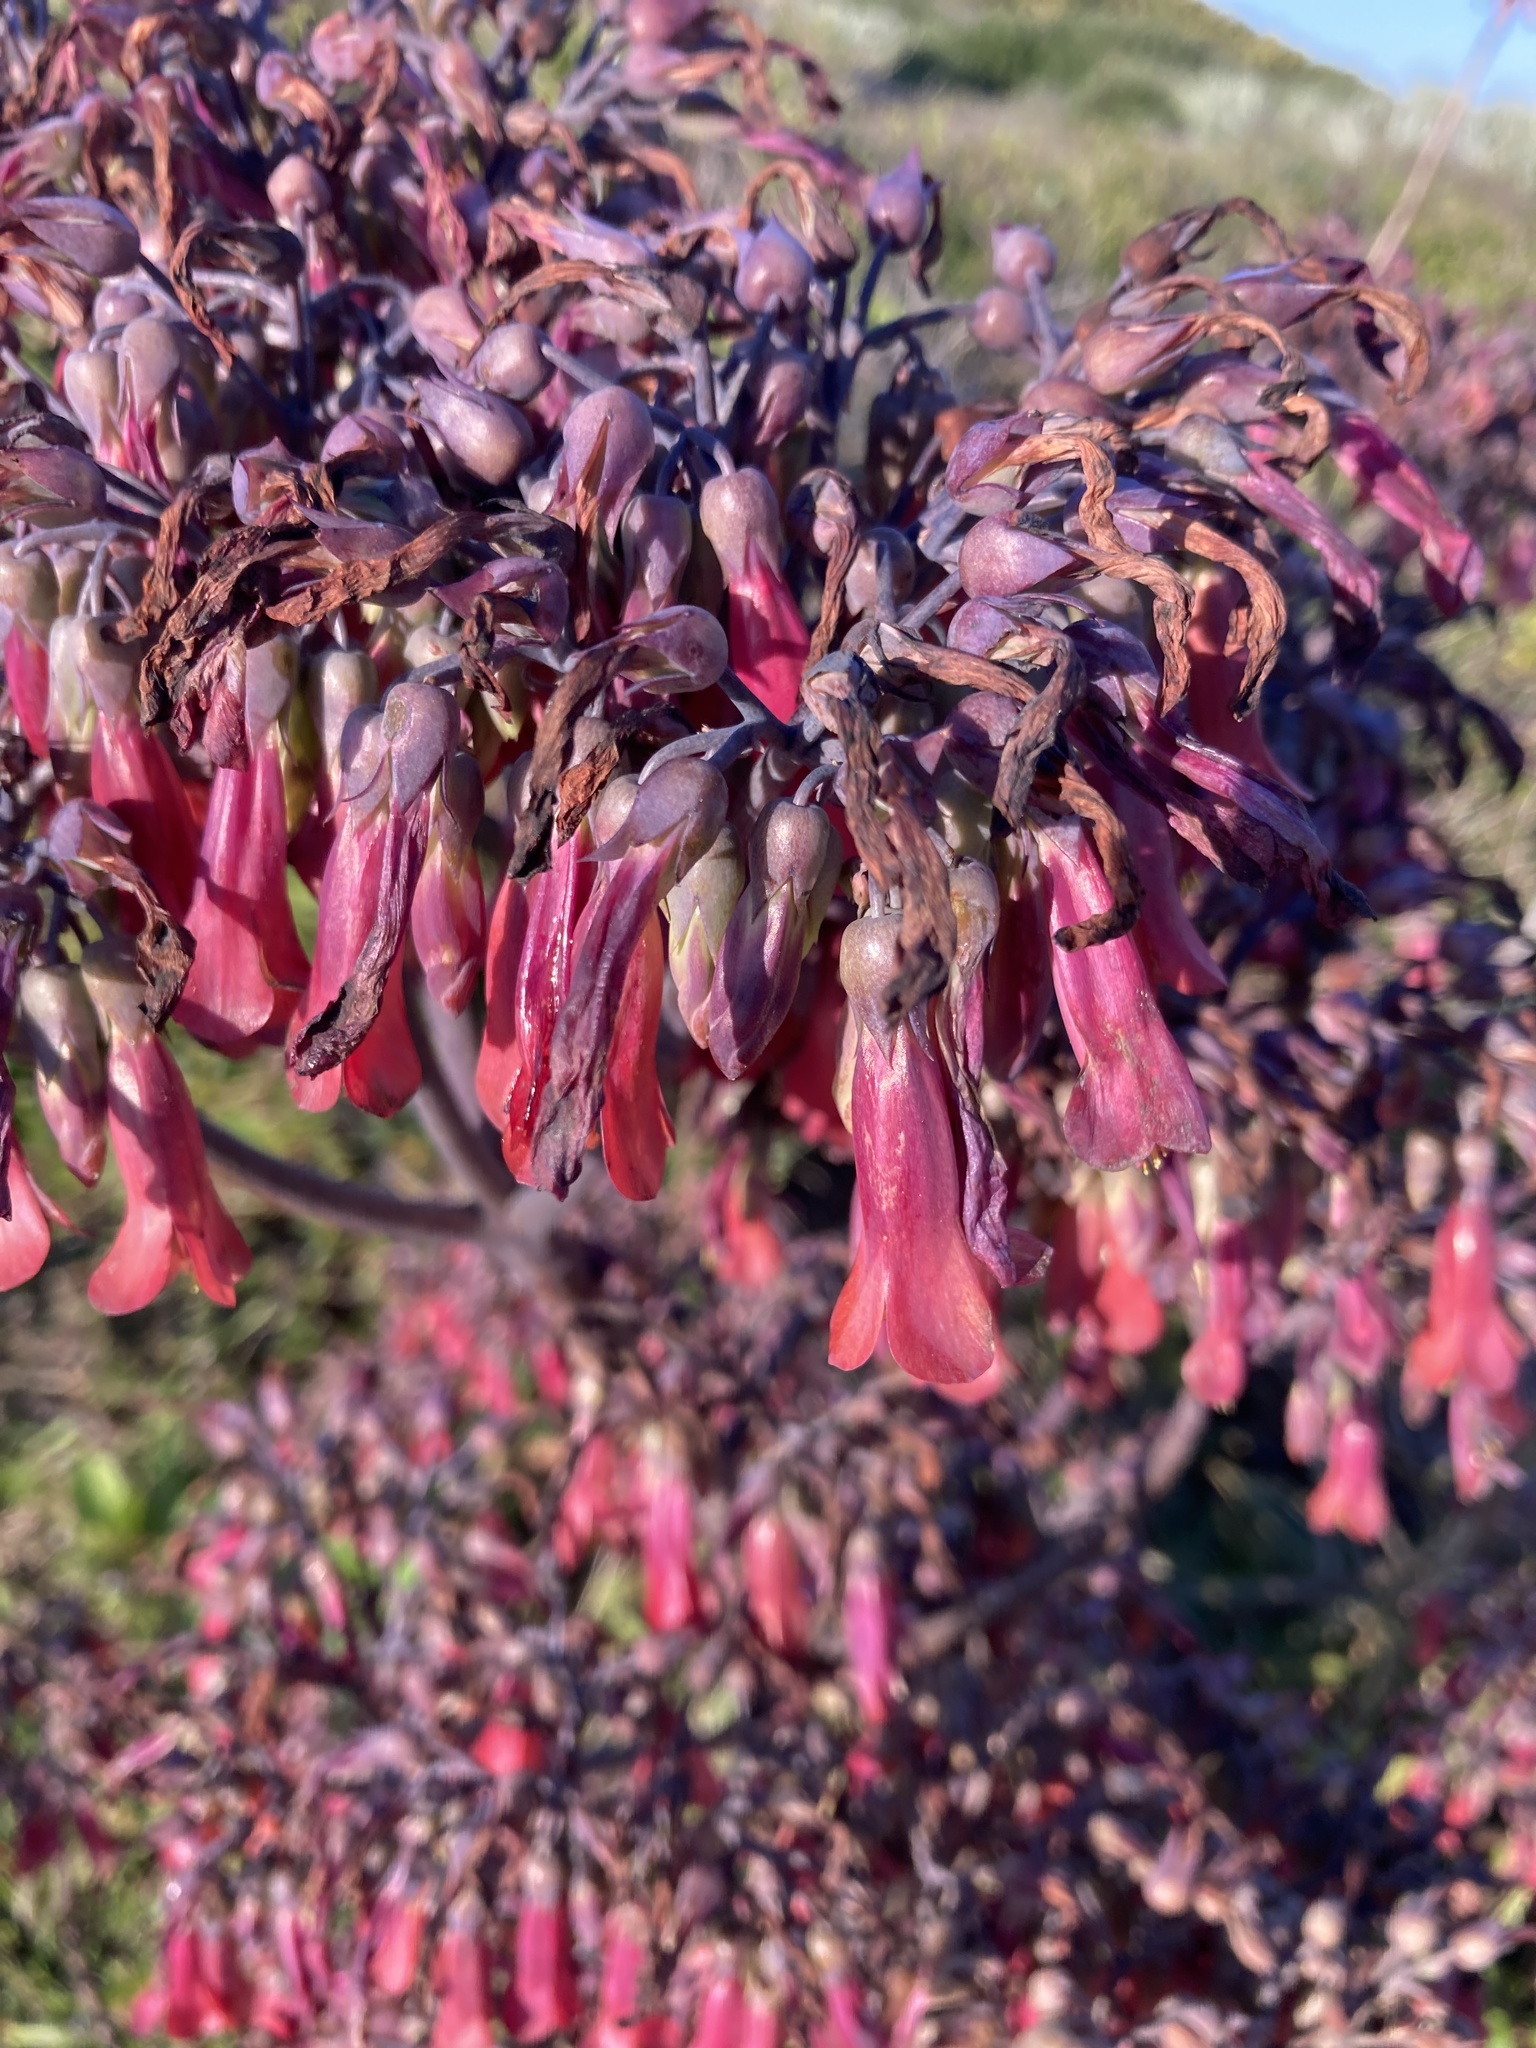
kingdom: Plantae
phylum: Tracheophyta
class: Magnoliopsida
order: Saxifragales
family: Crassulaceae
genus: Kalanchoe
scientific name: Kalanchoe houghtonii
